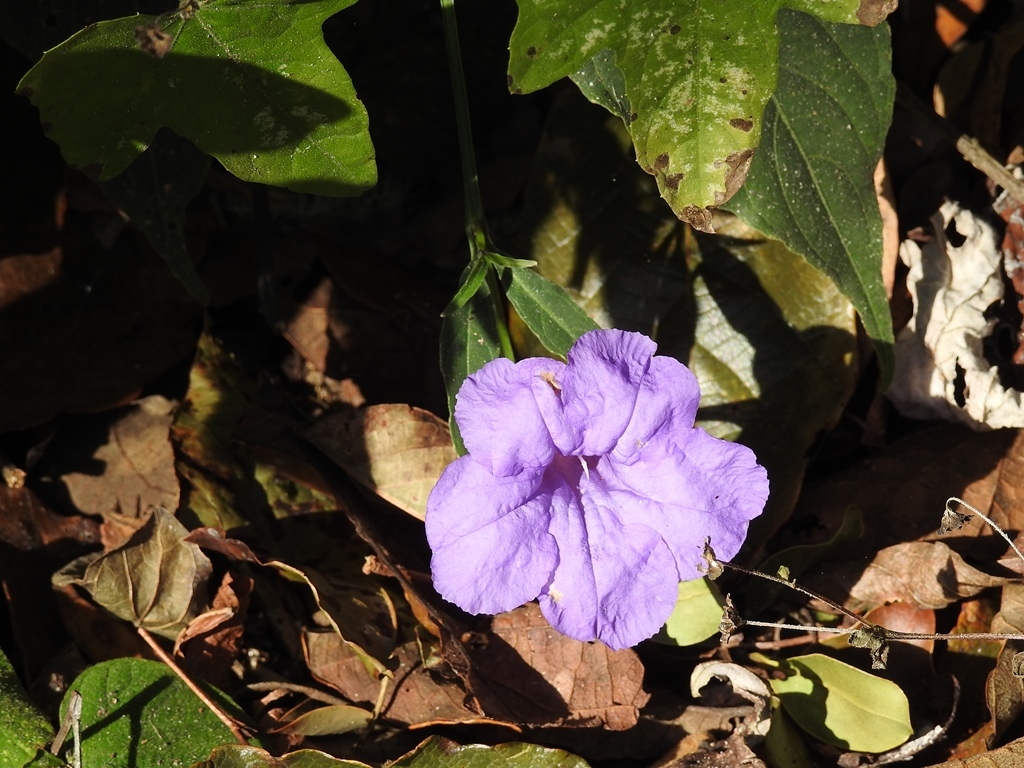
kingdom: Plantae
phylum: Tracheophyta
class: Magnoliopsida
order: Lamiales
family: Acanthaceae
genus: Ruellia
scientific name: Ruellia breedlovei
